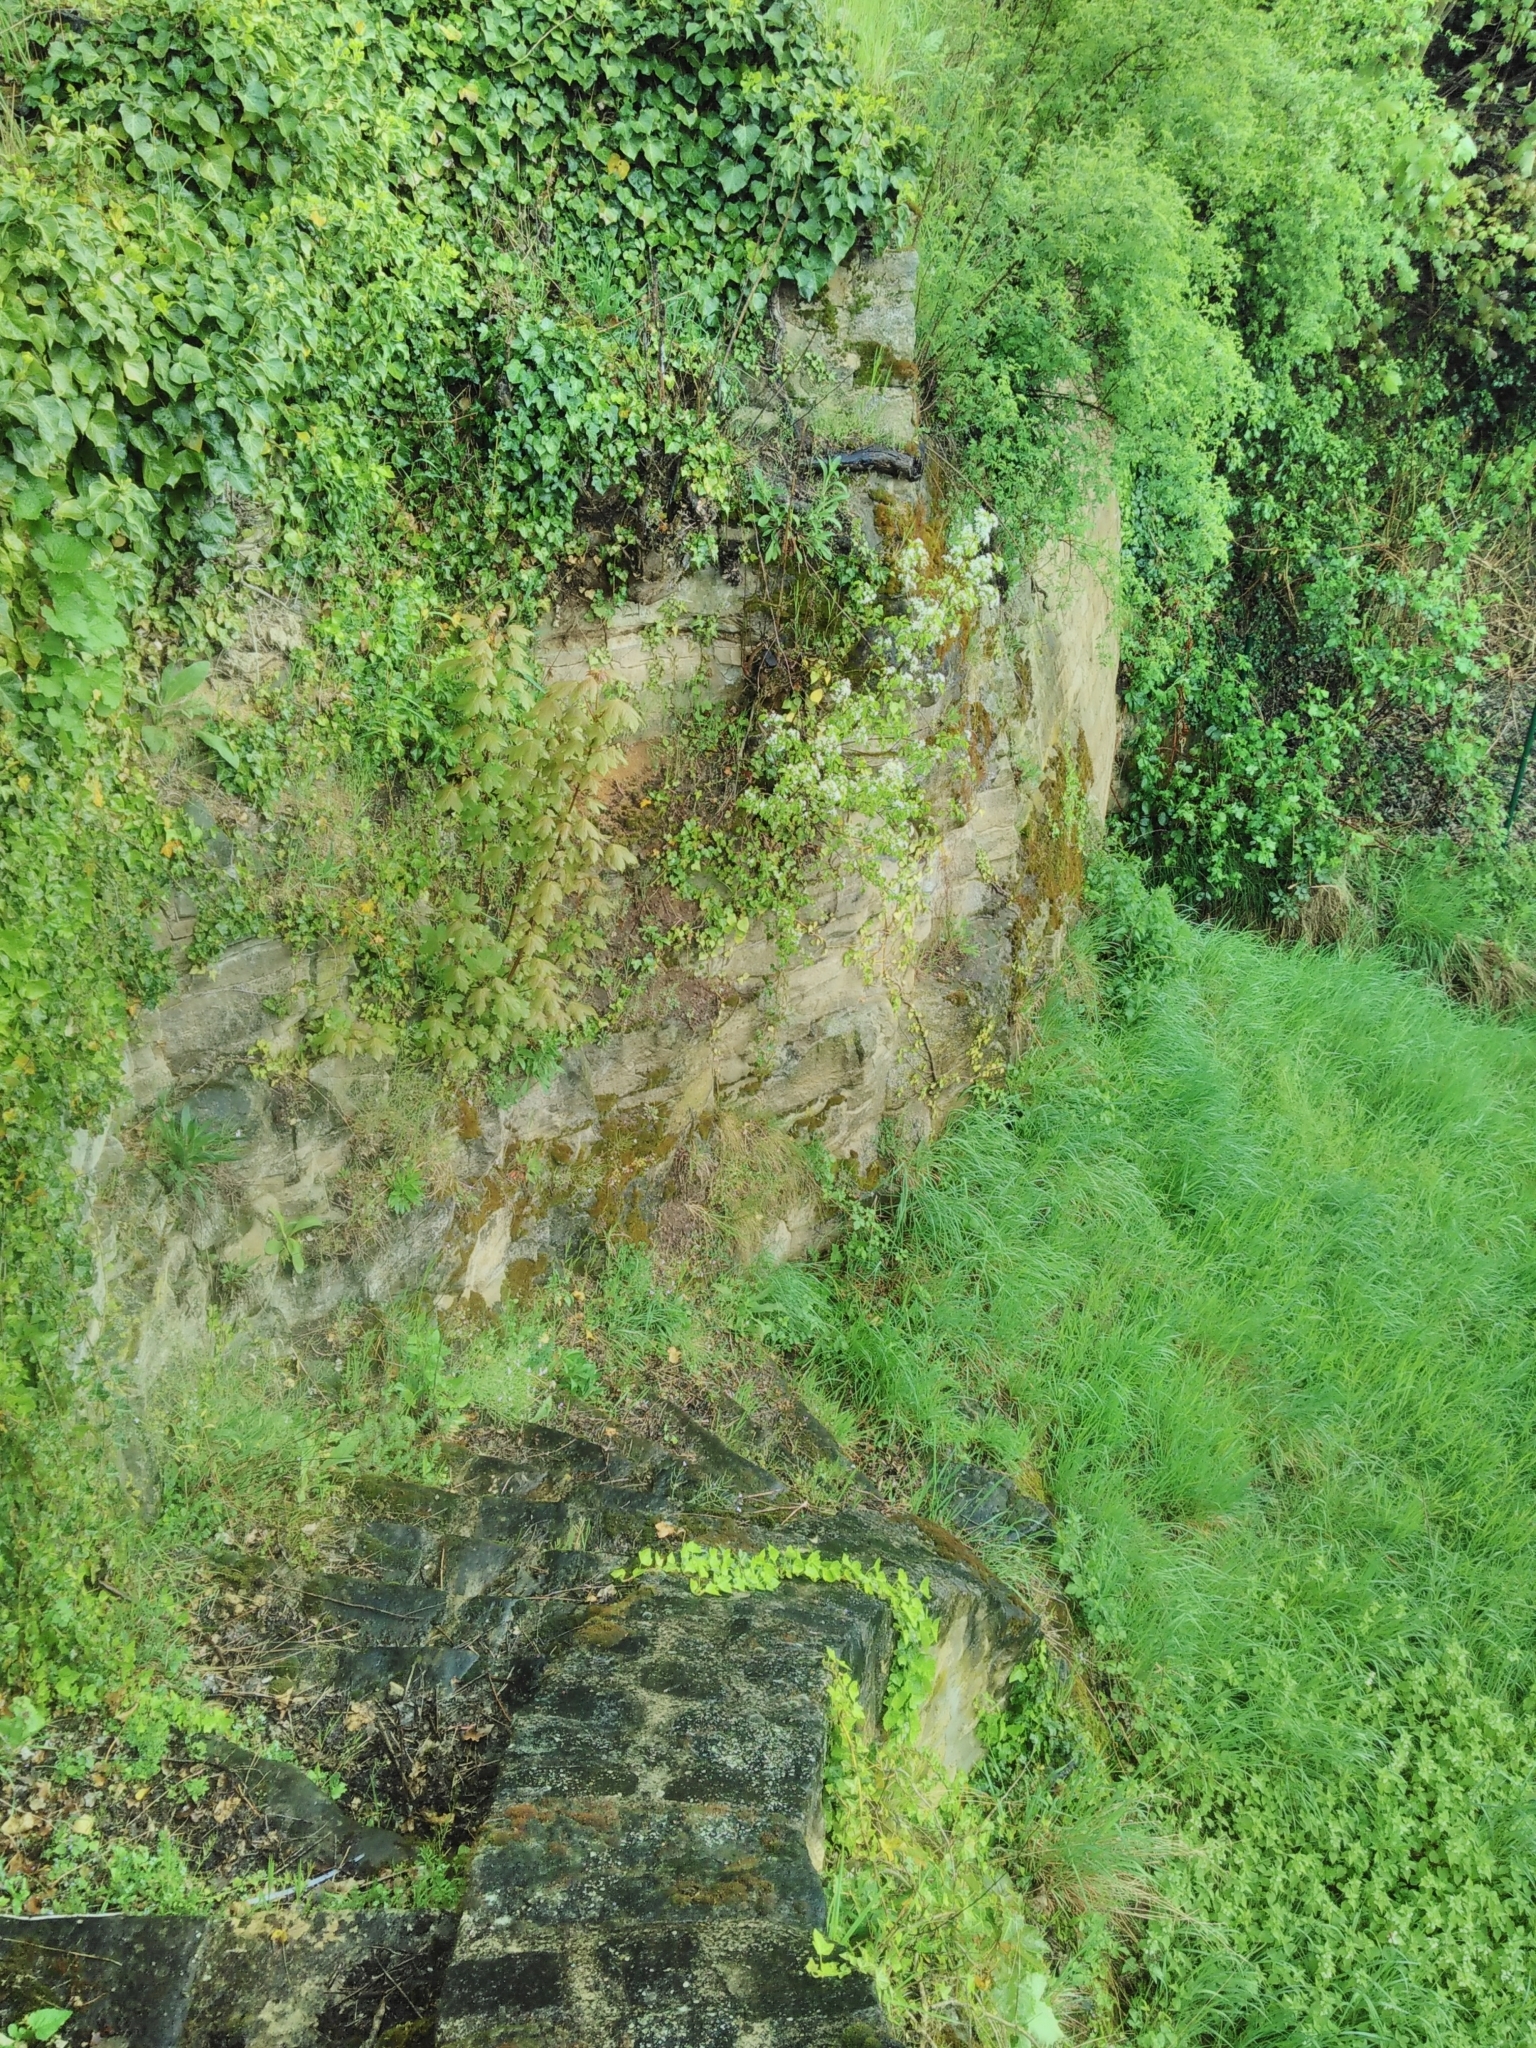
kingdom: Plantae
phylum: Tracheophyta
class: Magnoliopsida
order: Rosales
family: Rosaceae
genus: Prunus
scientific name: Prunus mahaleb
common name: Mahaleb cherry
